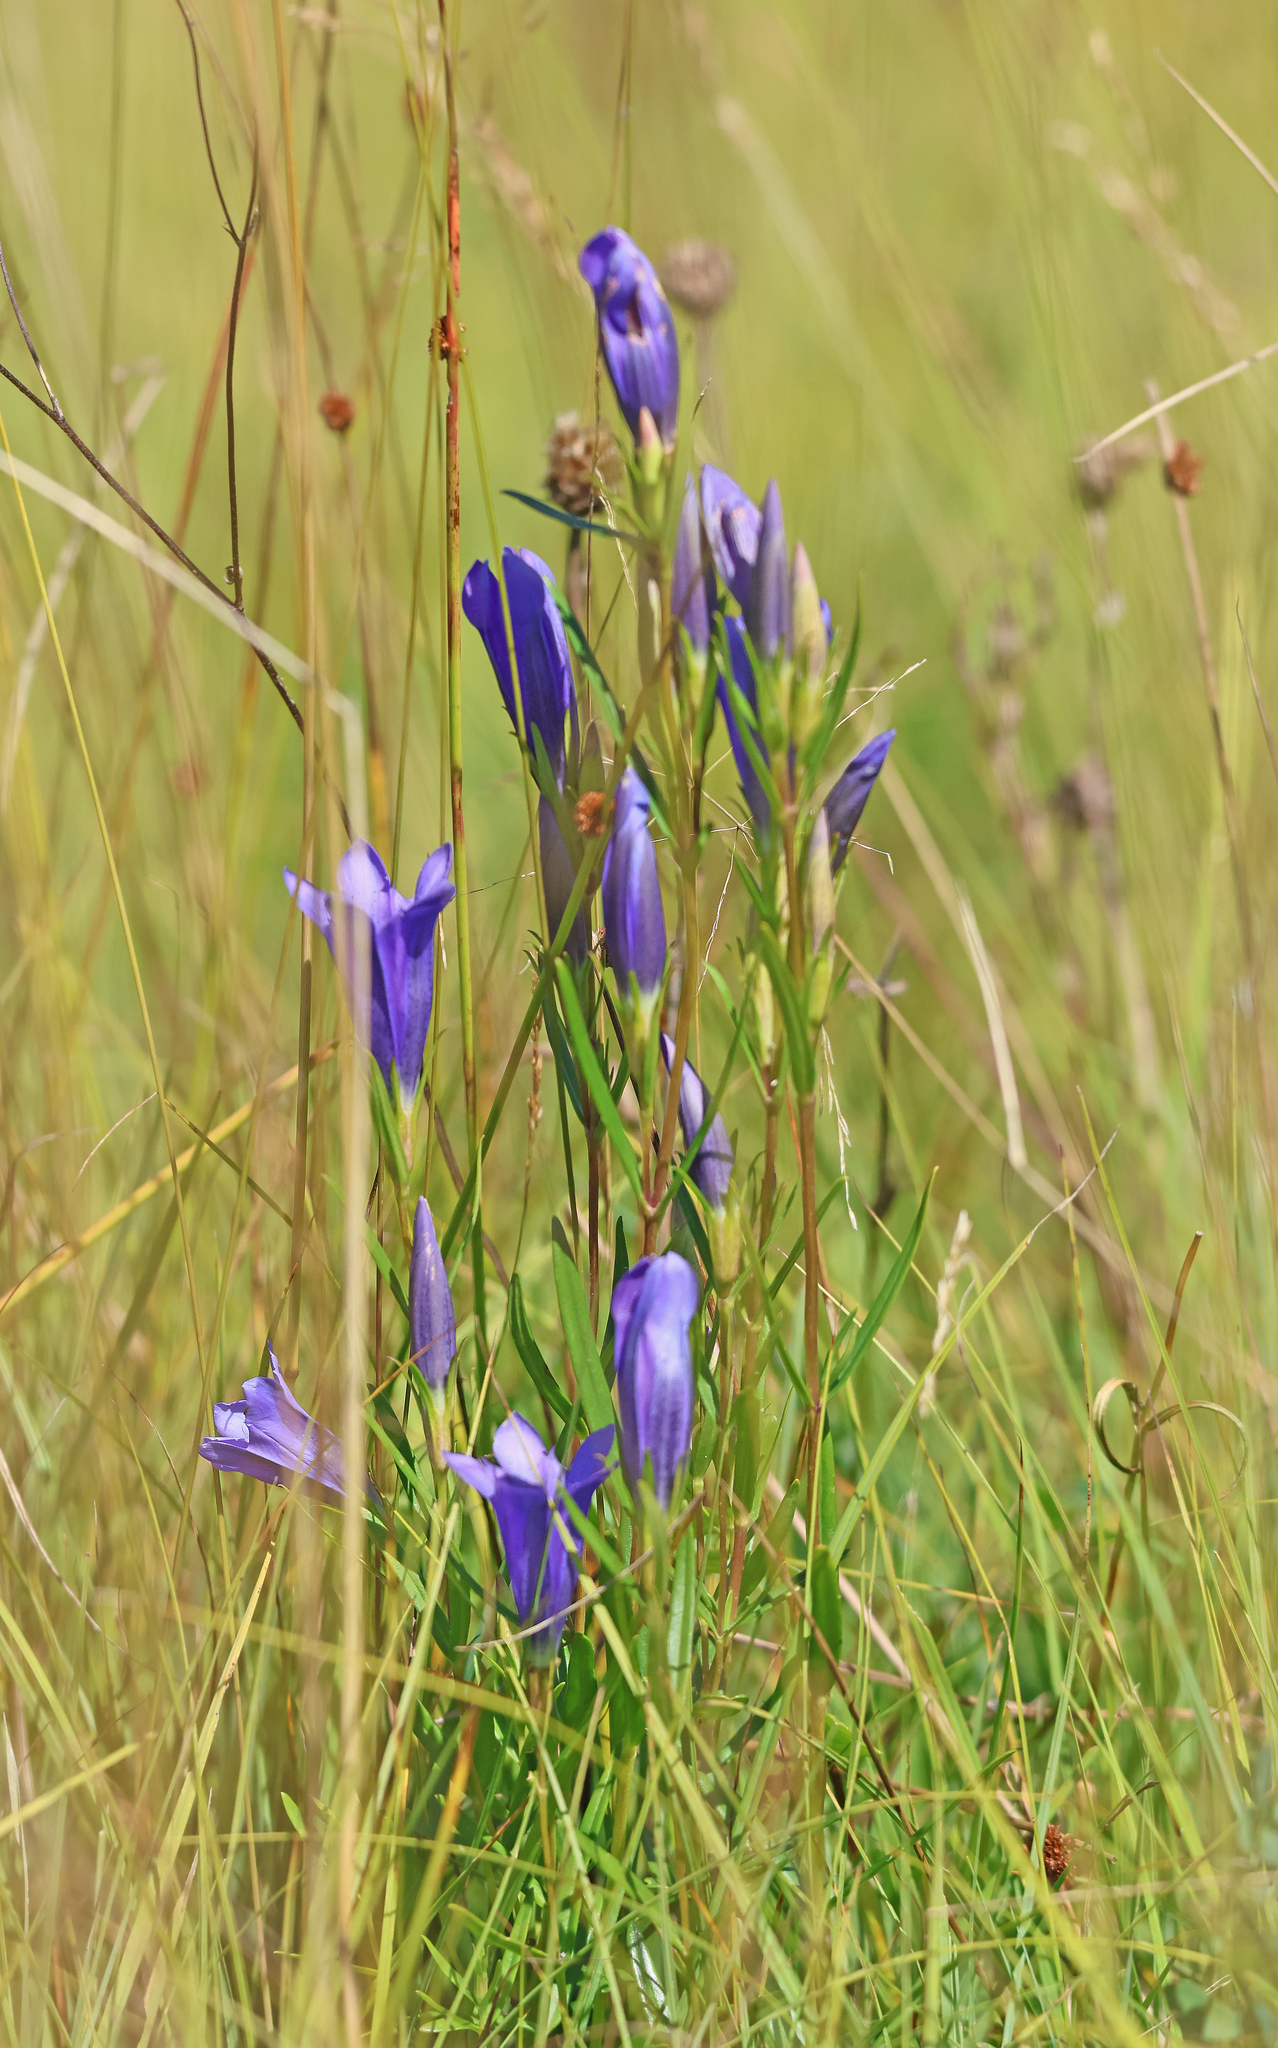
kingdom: Plantae
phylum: Tracheophyta
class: Magnoliopsida
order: Gentianales
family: Gentianaceae
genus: Gentiana
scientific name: Gentiana pneumonanthe
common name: Marsh gentian
